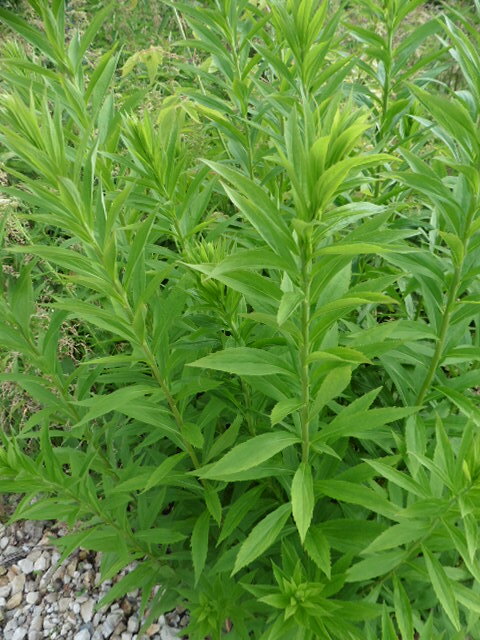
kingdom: Plantae
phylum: Tracheophyta
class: Magnoliopsida
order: Asterales
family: Asteraceae
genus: Solidago
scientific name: Solidago canadensis
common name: Canada goldenrod
